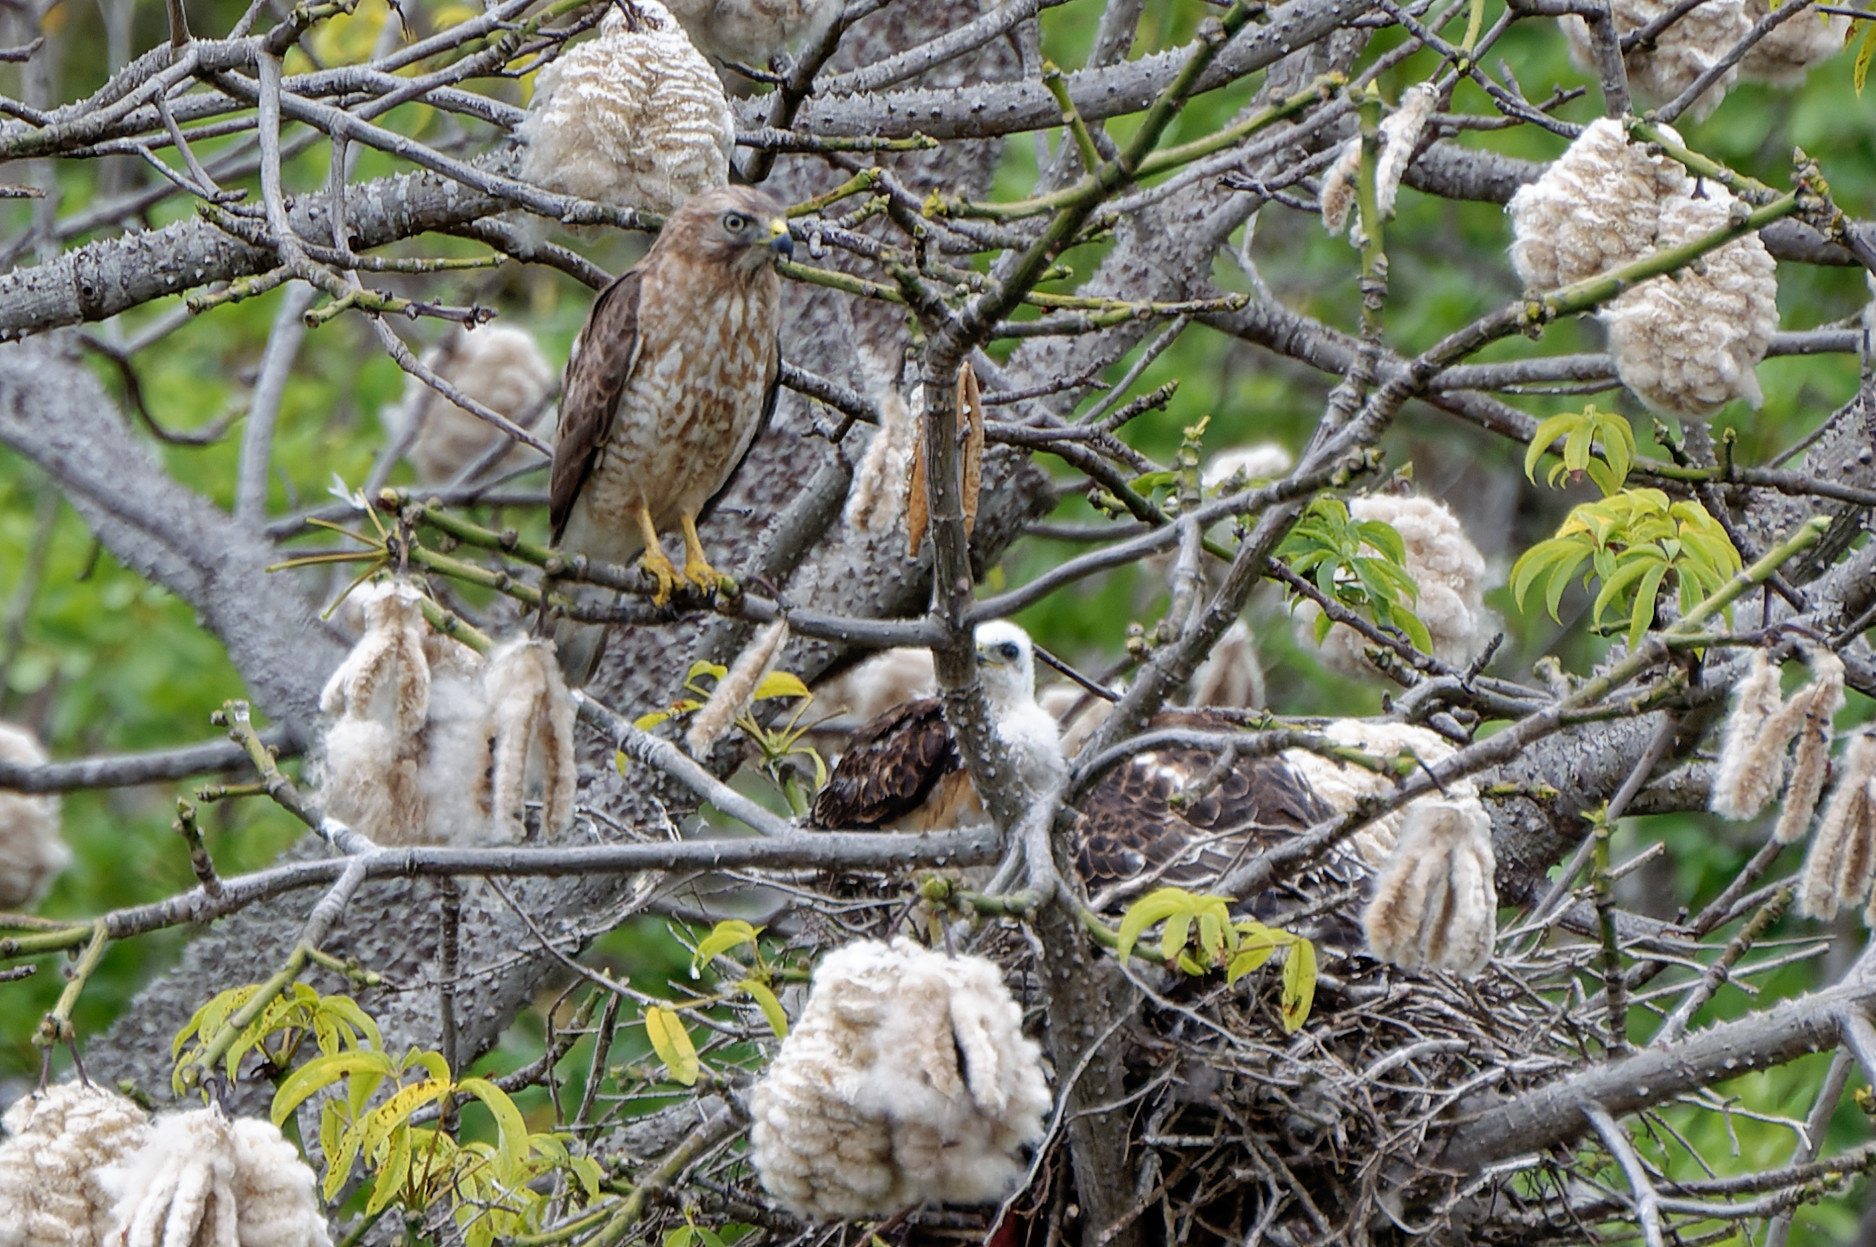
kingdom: Animalia
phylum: Chordata
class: Aves
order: Accipitriformes
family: Accipitridae
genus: Buteo
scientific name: Buteo platypterus
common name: Broad-winged hawk
